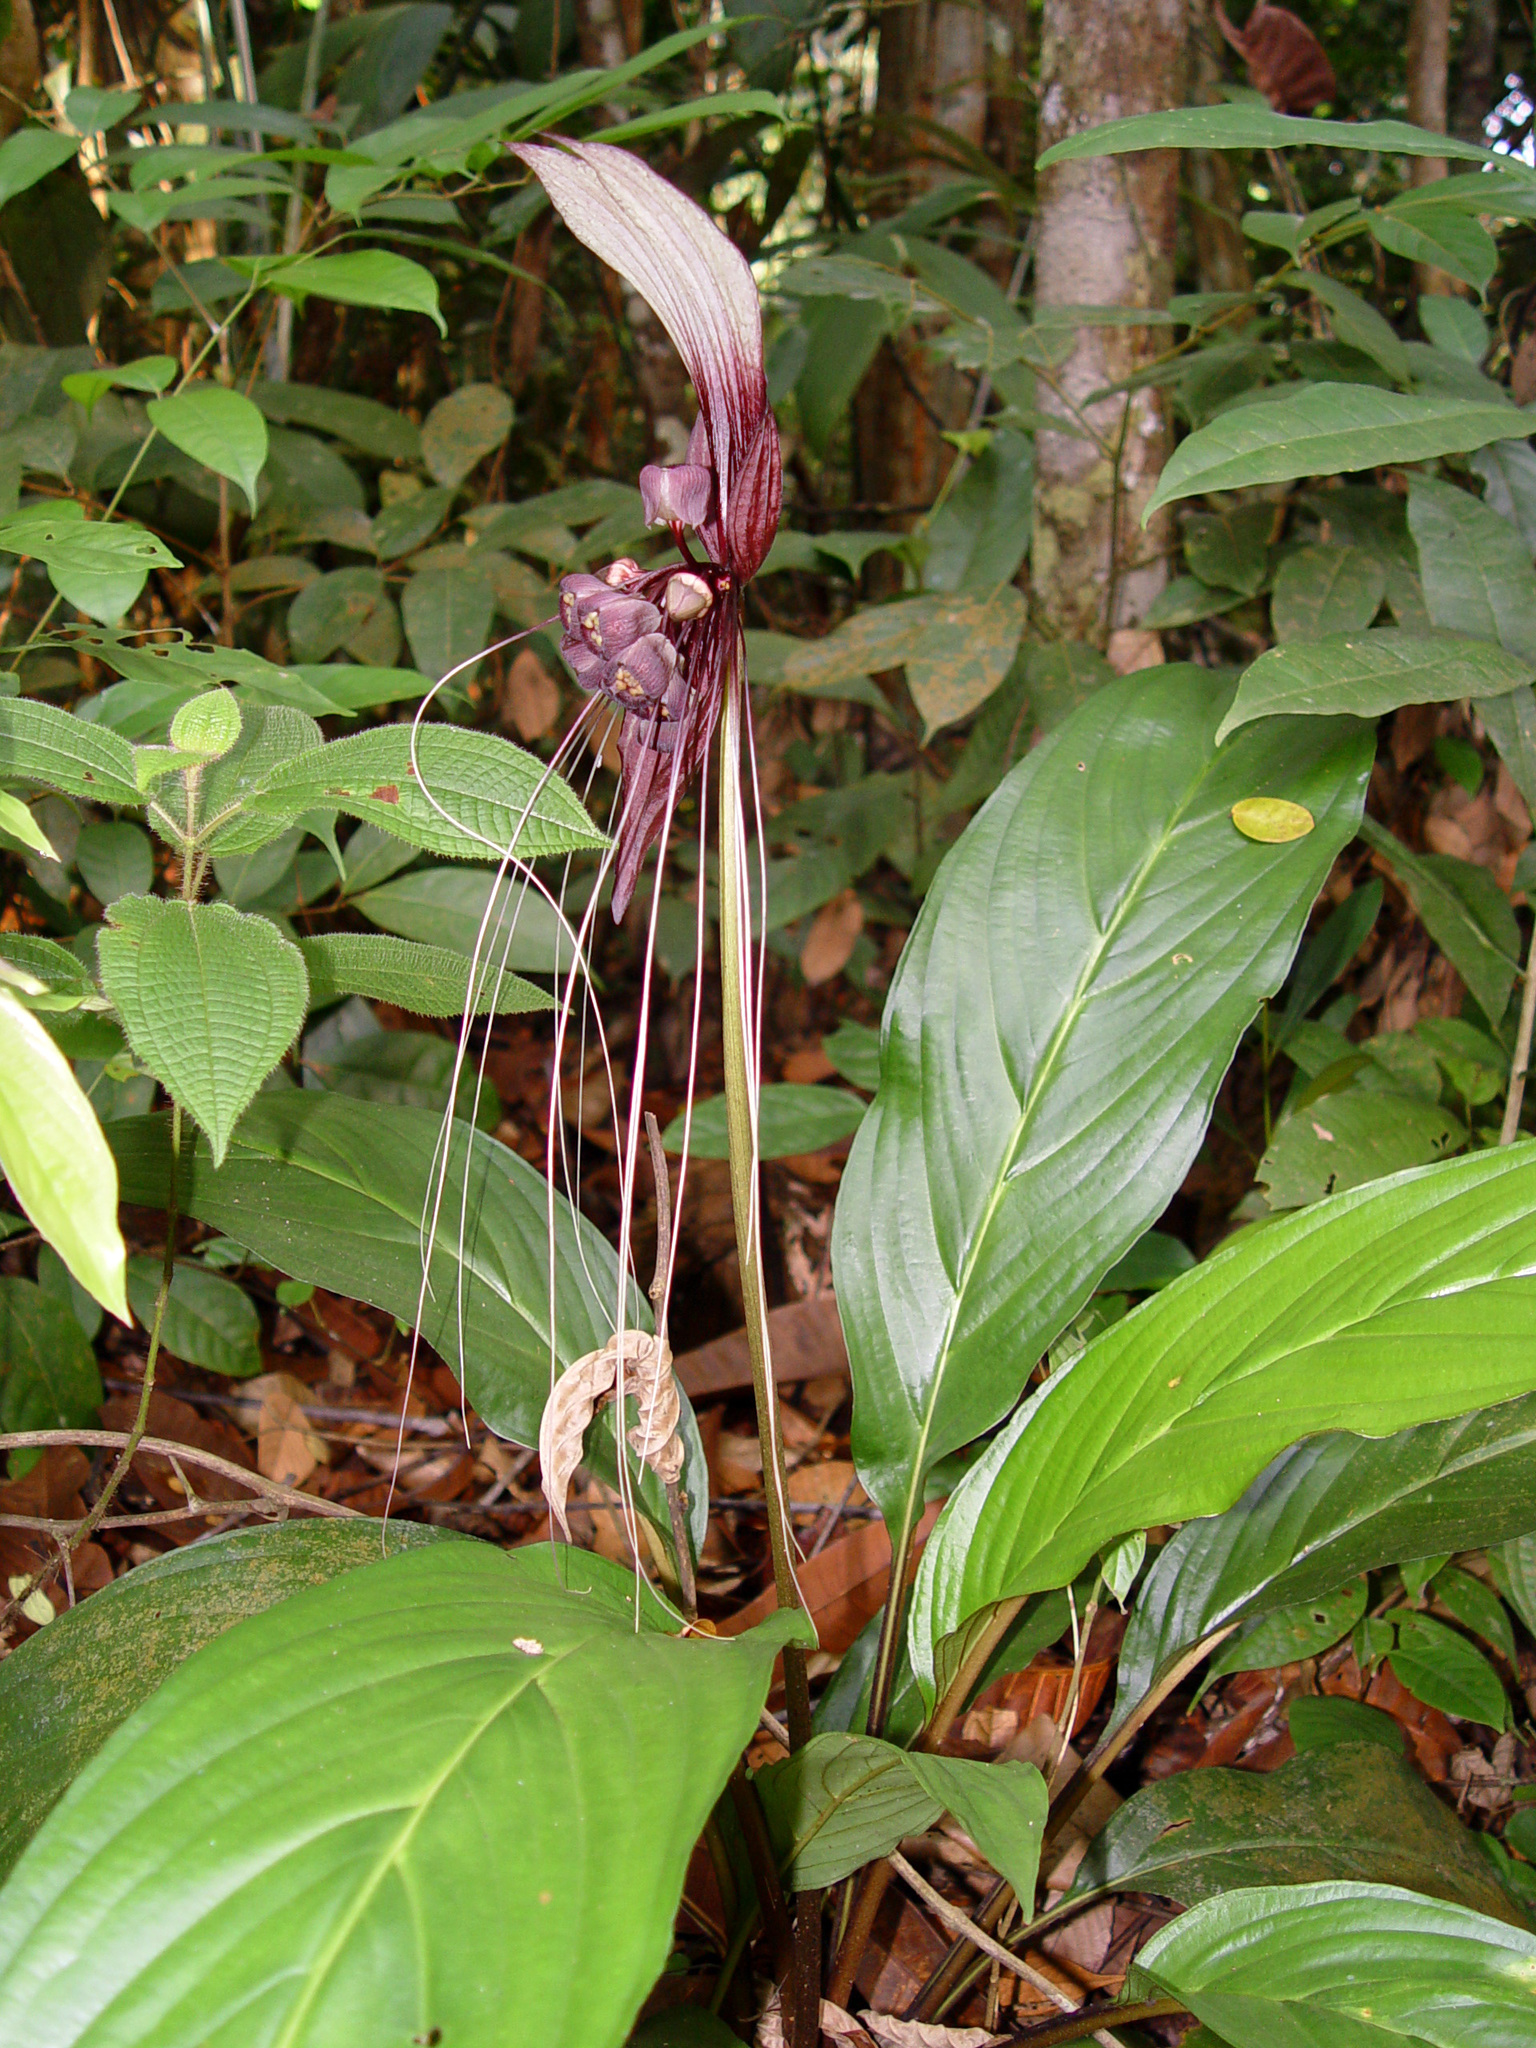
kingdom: Plantae
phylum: Tracheophyta
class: Liliopsida
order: Dioscoreales
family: Dioscoreaceae
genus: Tacca
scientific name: Tacca cristata
